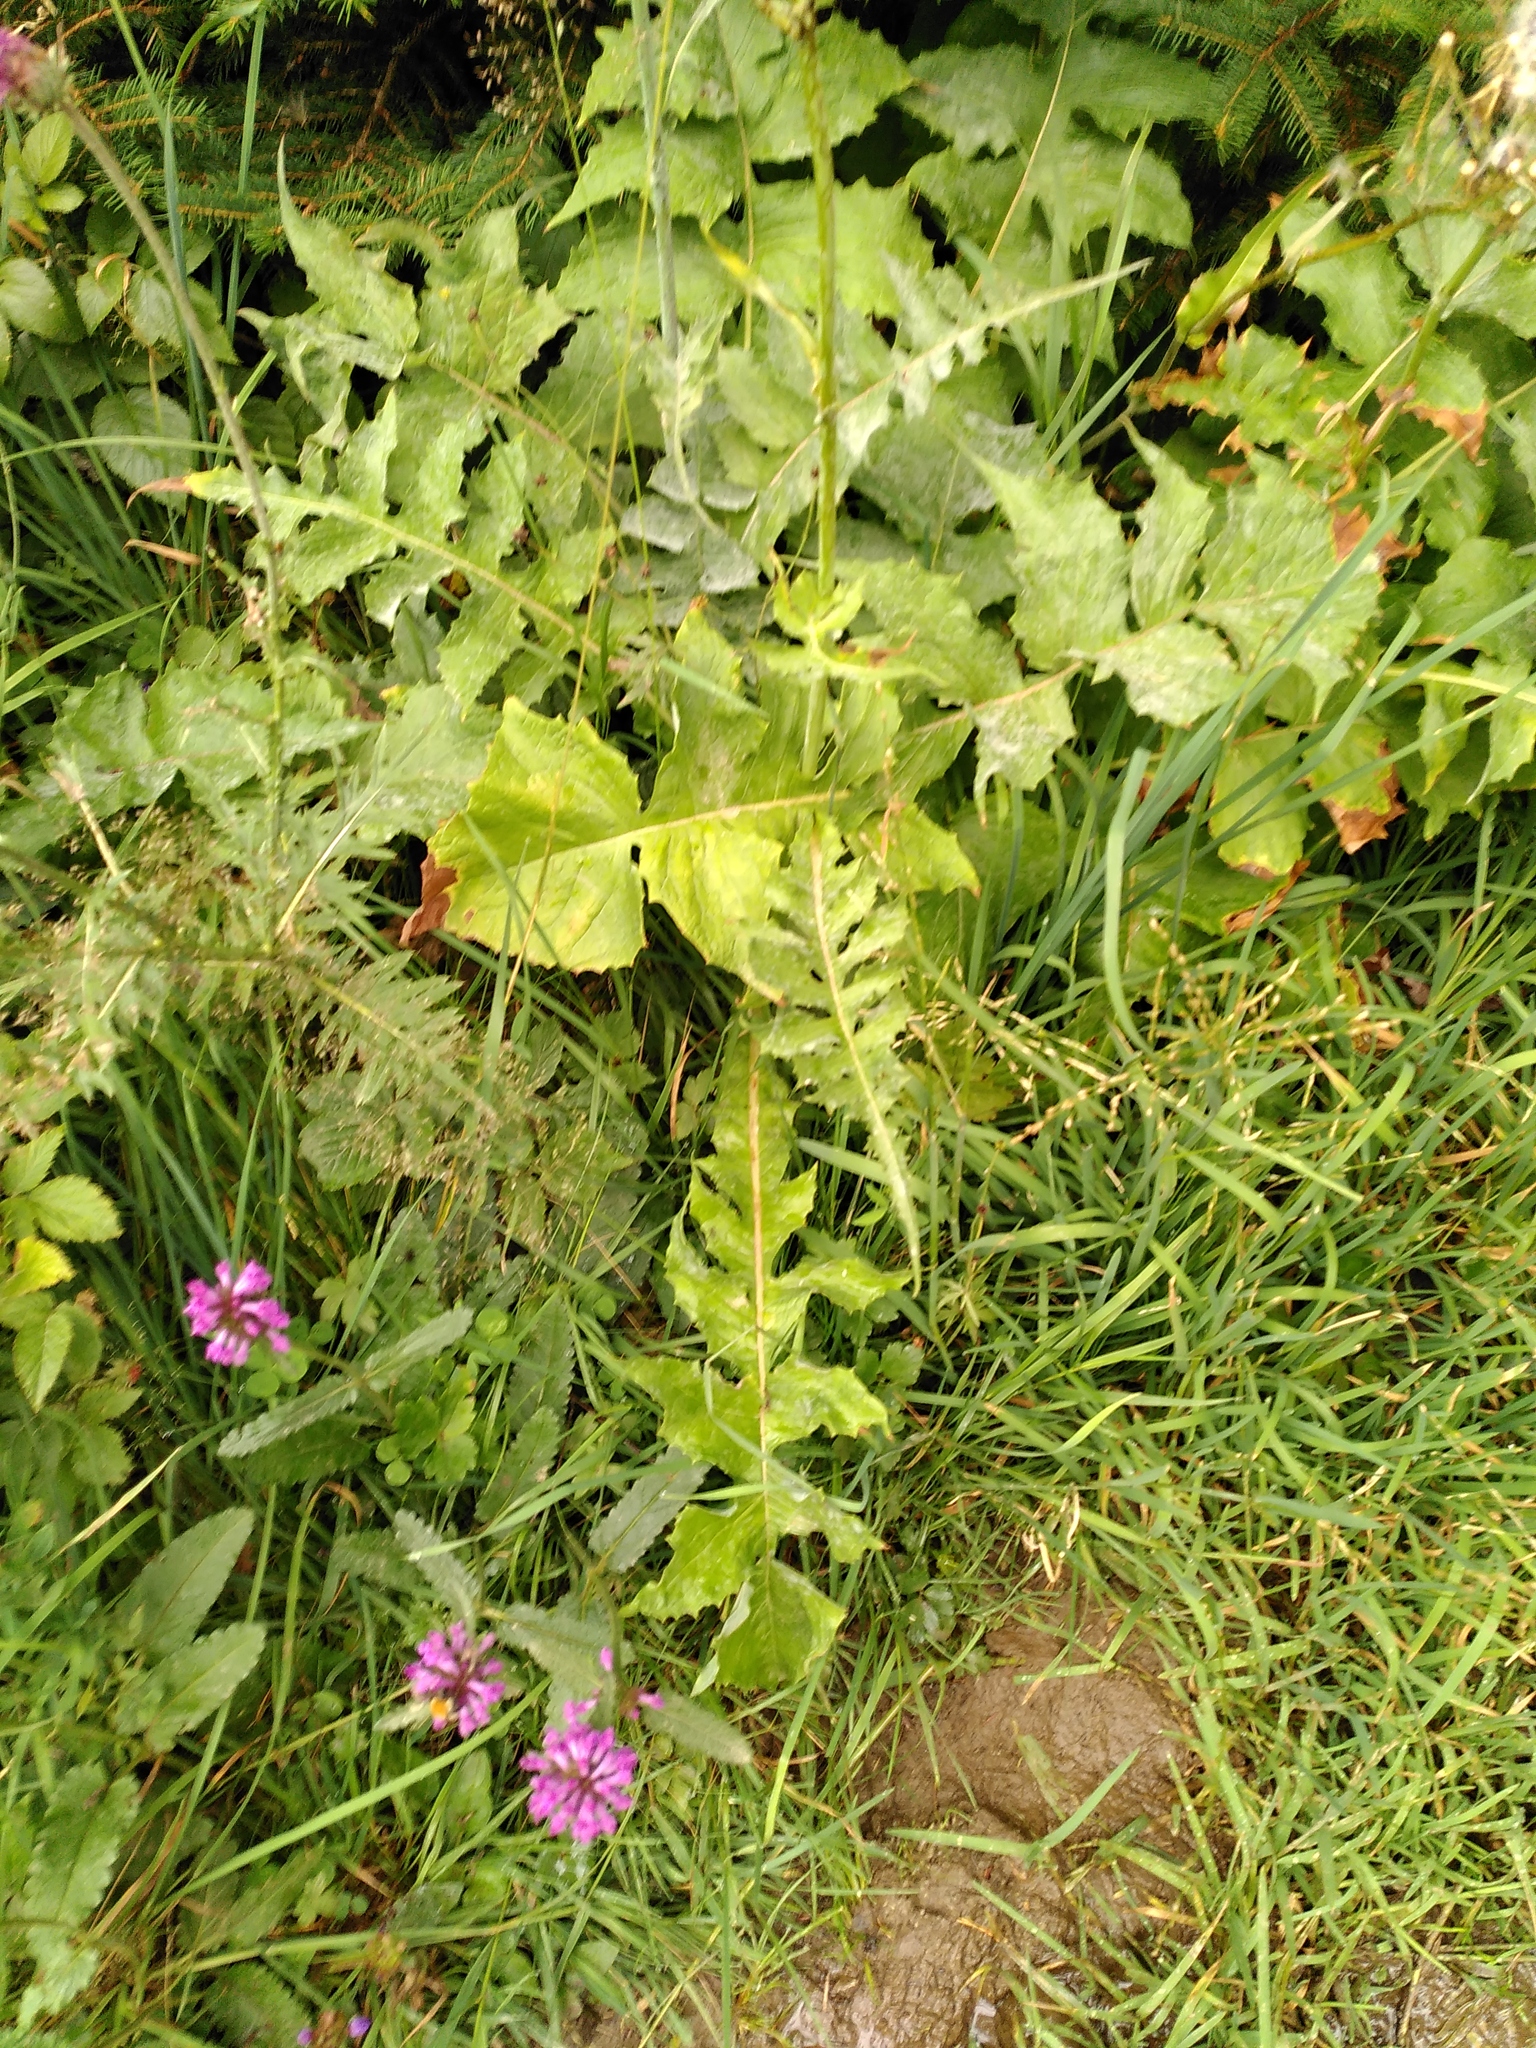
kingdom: Plantae
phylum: Tracheophyta
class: Magnoliopsida
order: Asterales
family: Asteraceae
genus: Lactuca
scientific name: Lactuca plumieri
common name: Hairless blue-sow-thistle
